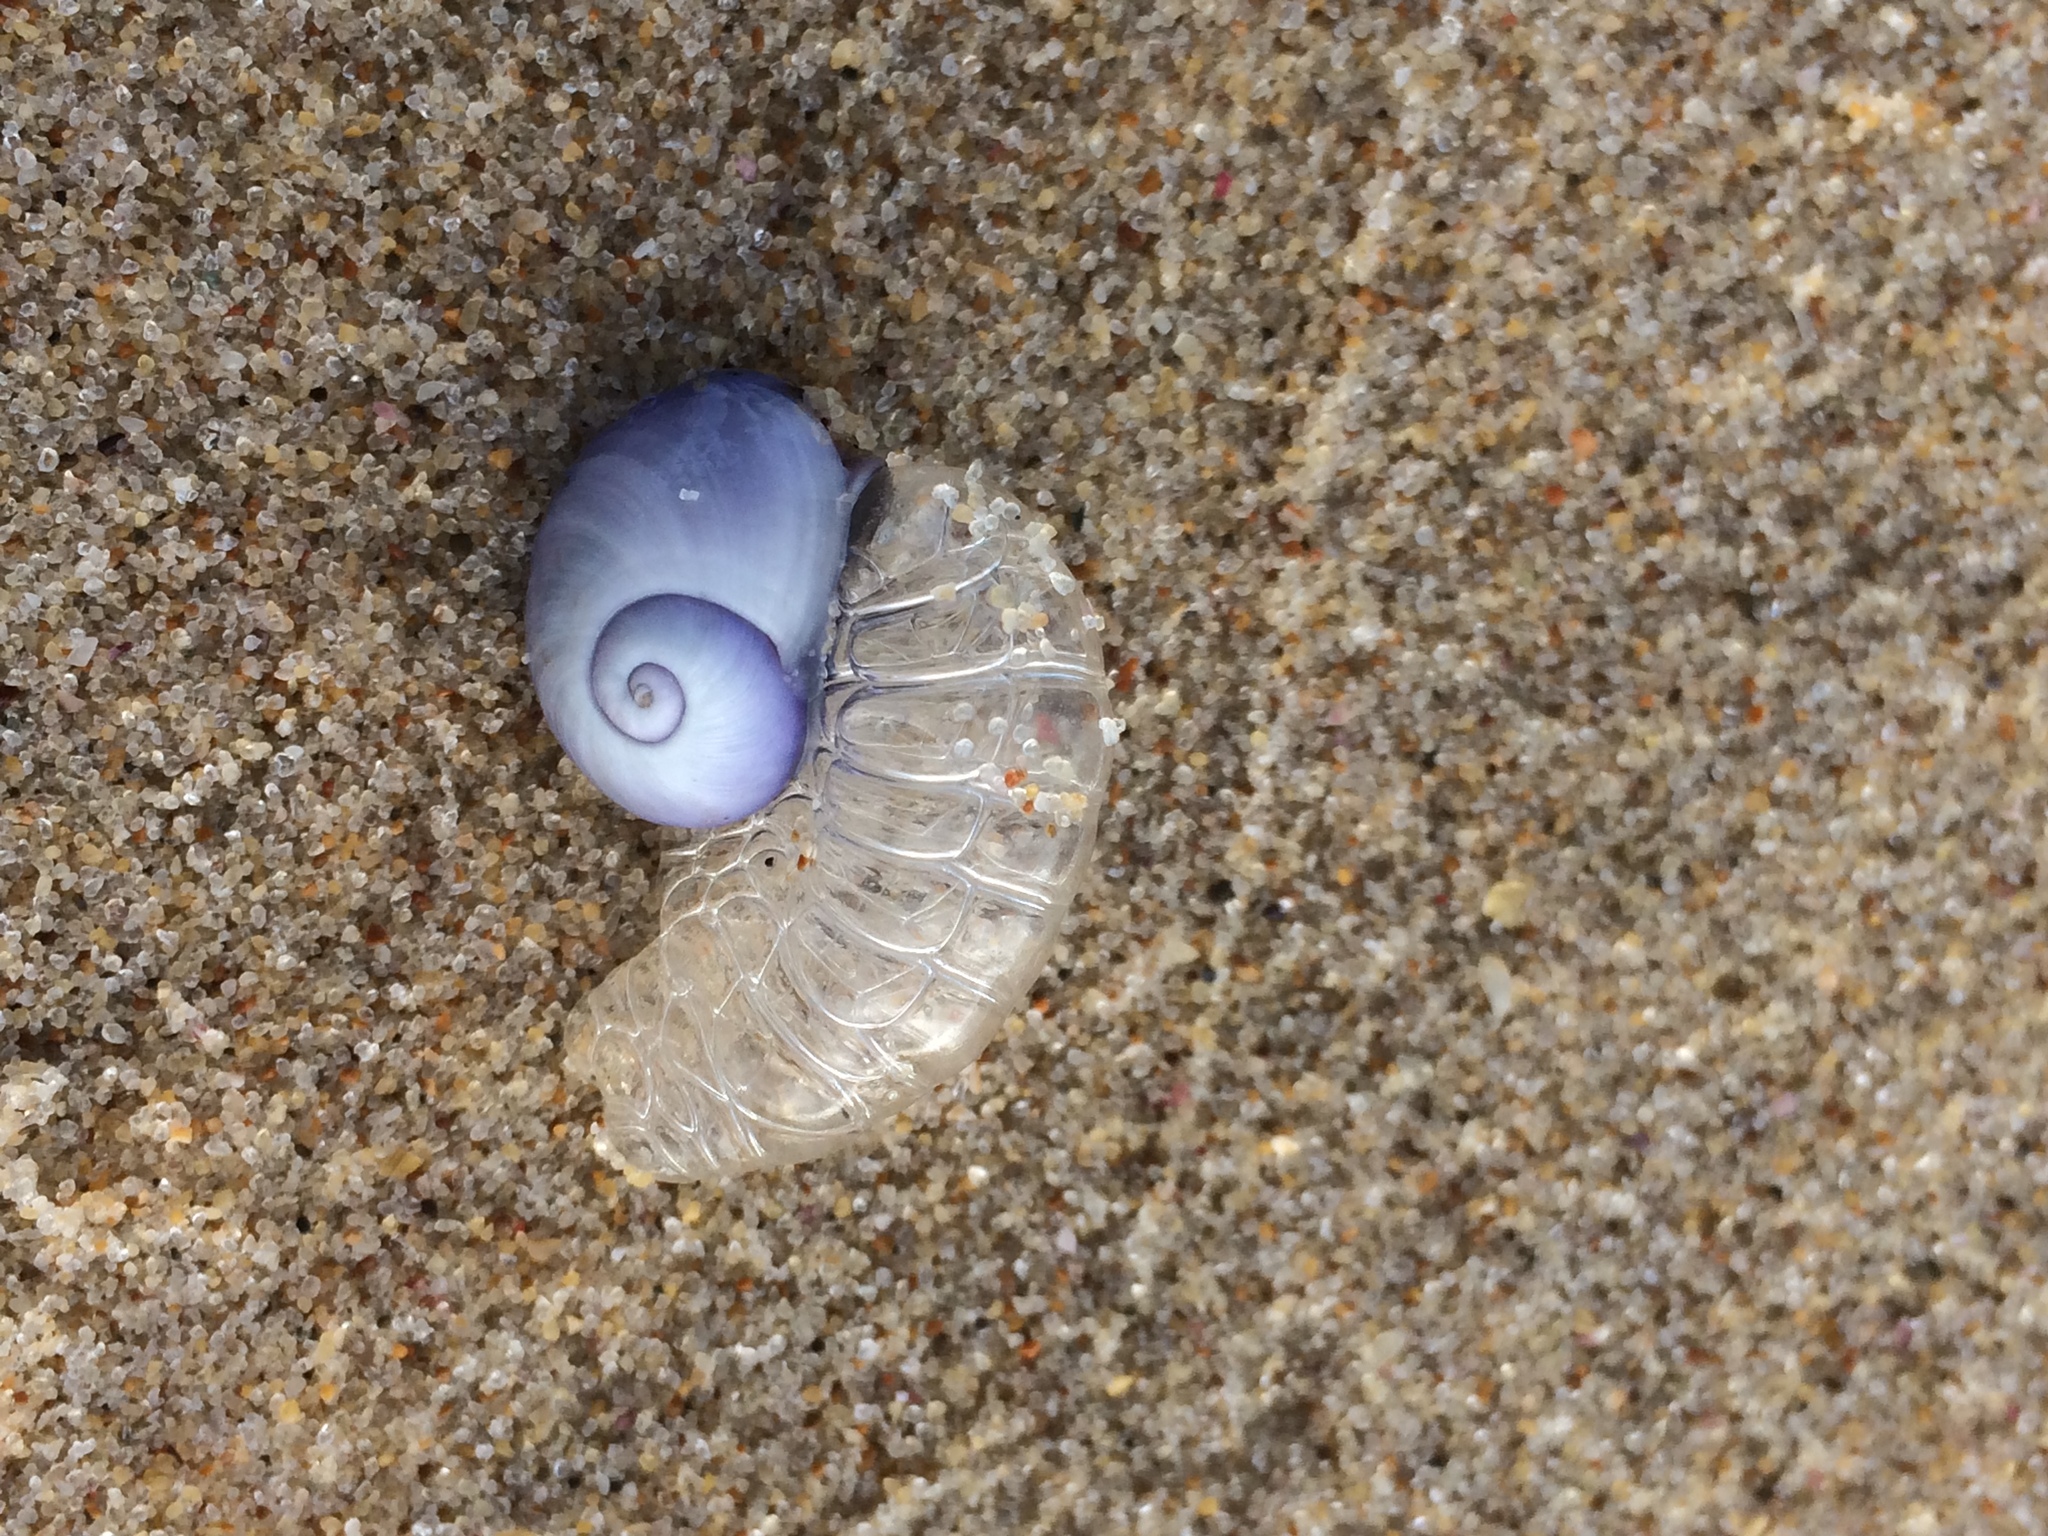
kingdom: Animalia
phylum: Mollusca
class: Gastropoda
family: Epitoniidae
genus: Janthina
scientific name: Janthina janthina
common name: Common janthina
